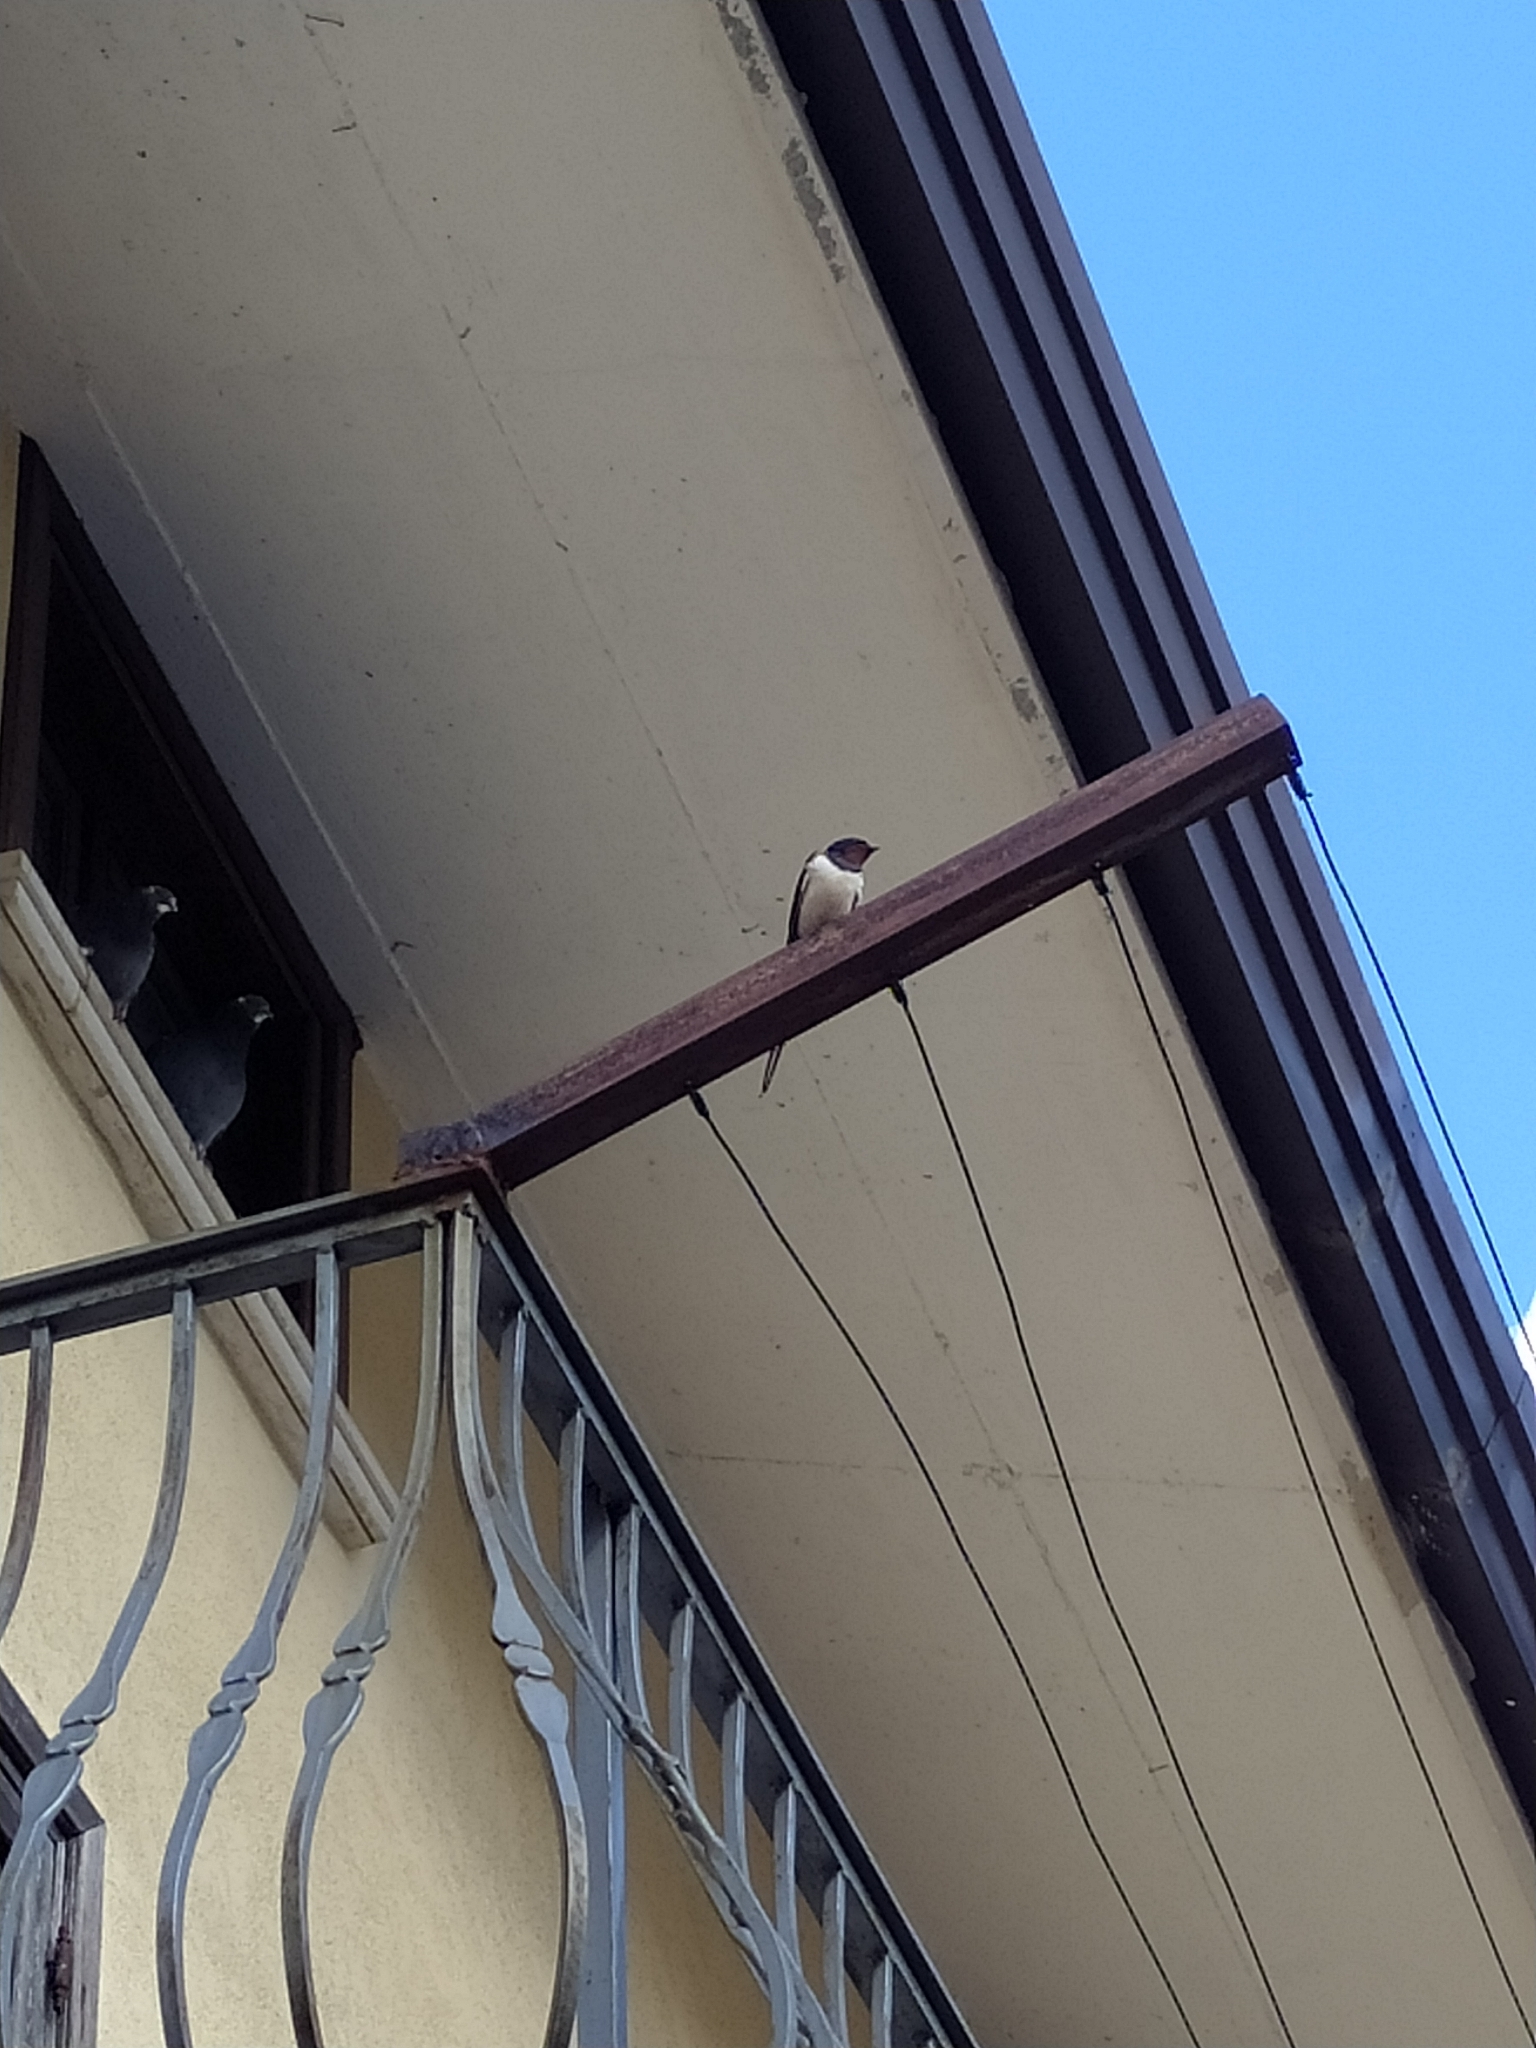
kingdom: Animalia
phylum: Chordata
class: Aves
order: Passeriformes
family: Hirundinidae
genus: Hirundo
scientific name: Hirundo rustica
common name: Barn swallow
